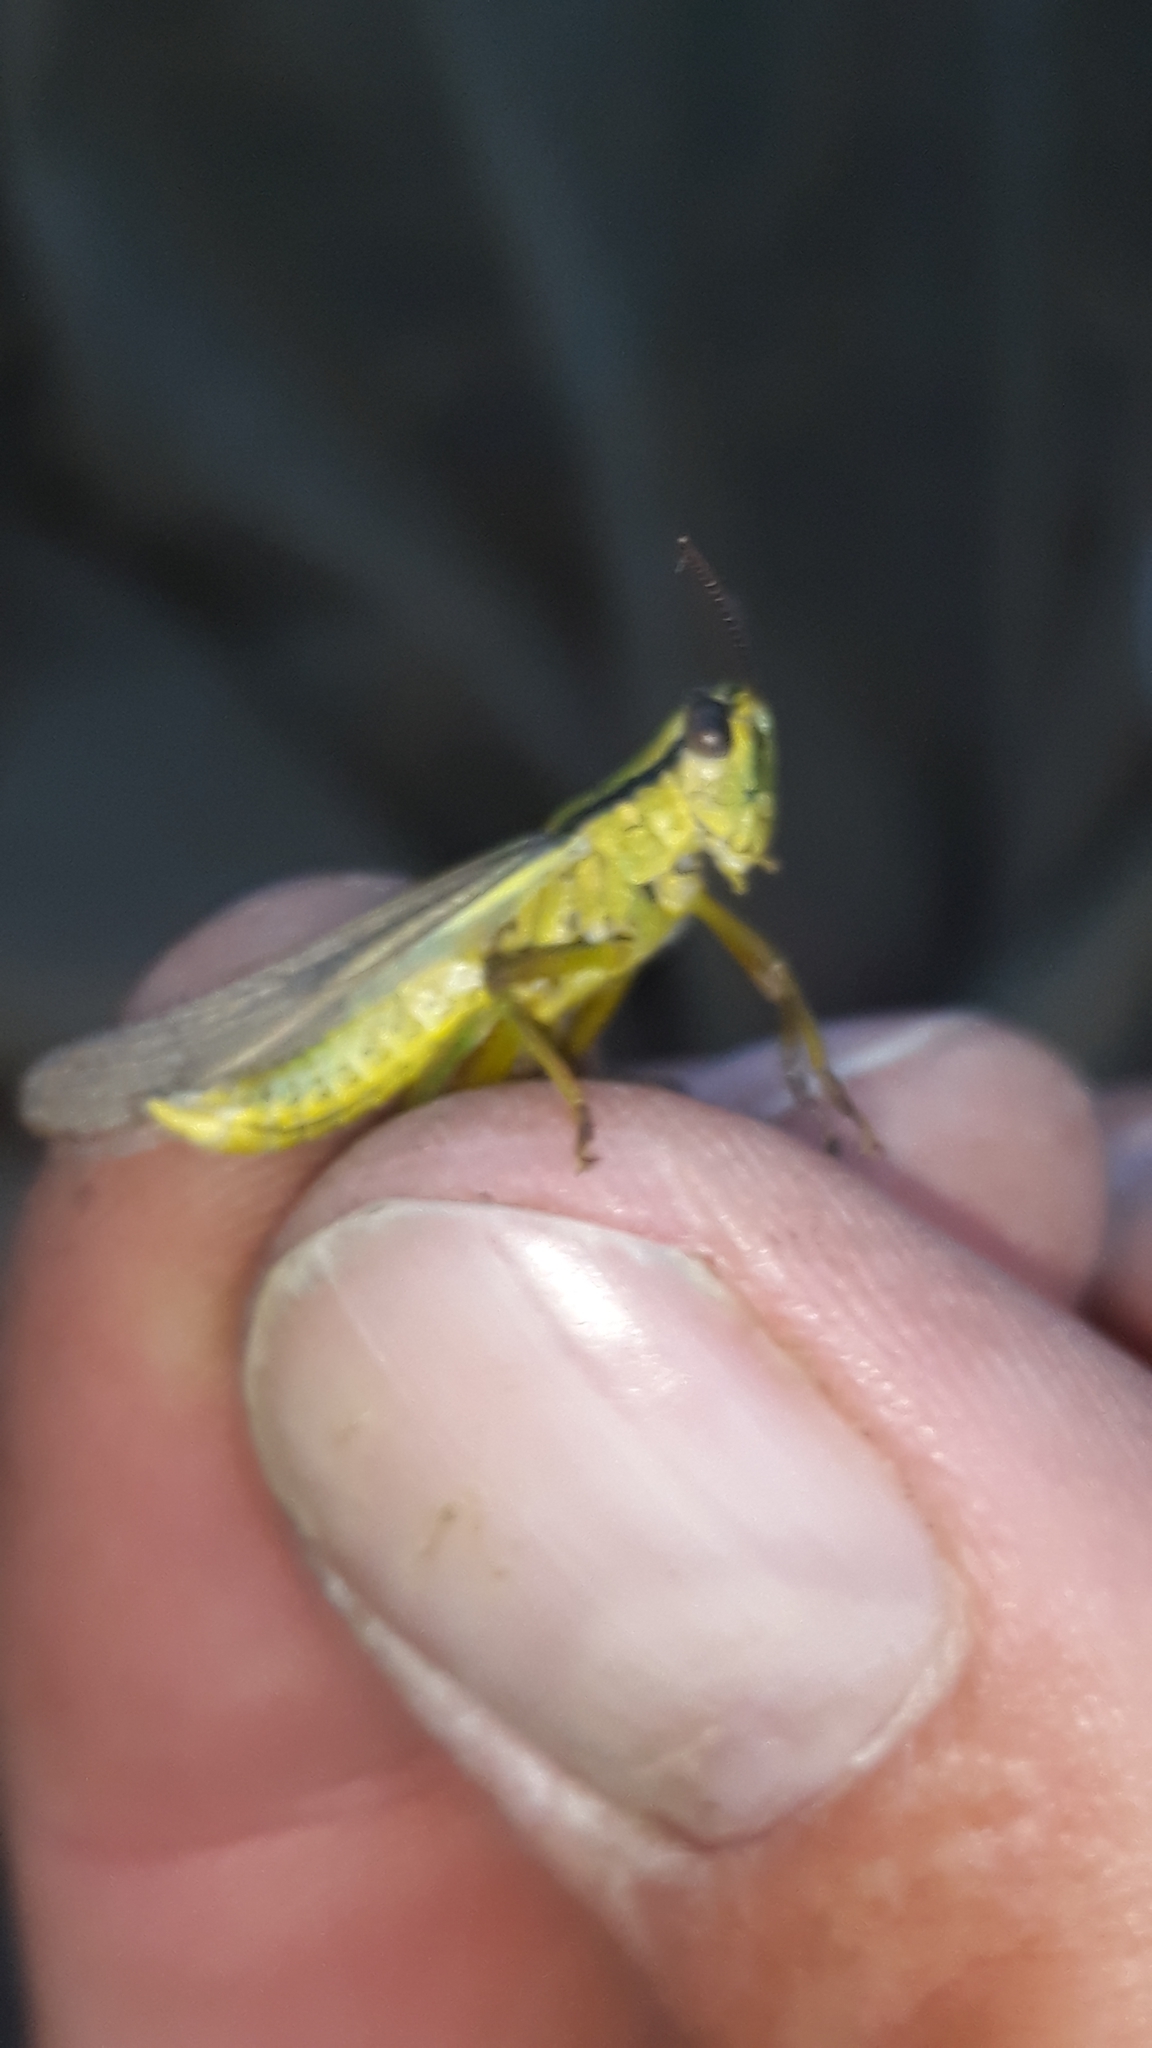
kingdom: Animalia
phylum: Arthropoda
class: Insecta
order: Orthoptera
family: Acrididae
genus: Mecostethus
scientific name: Mecostethus parapleurus
